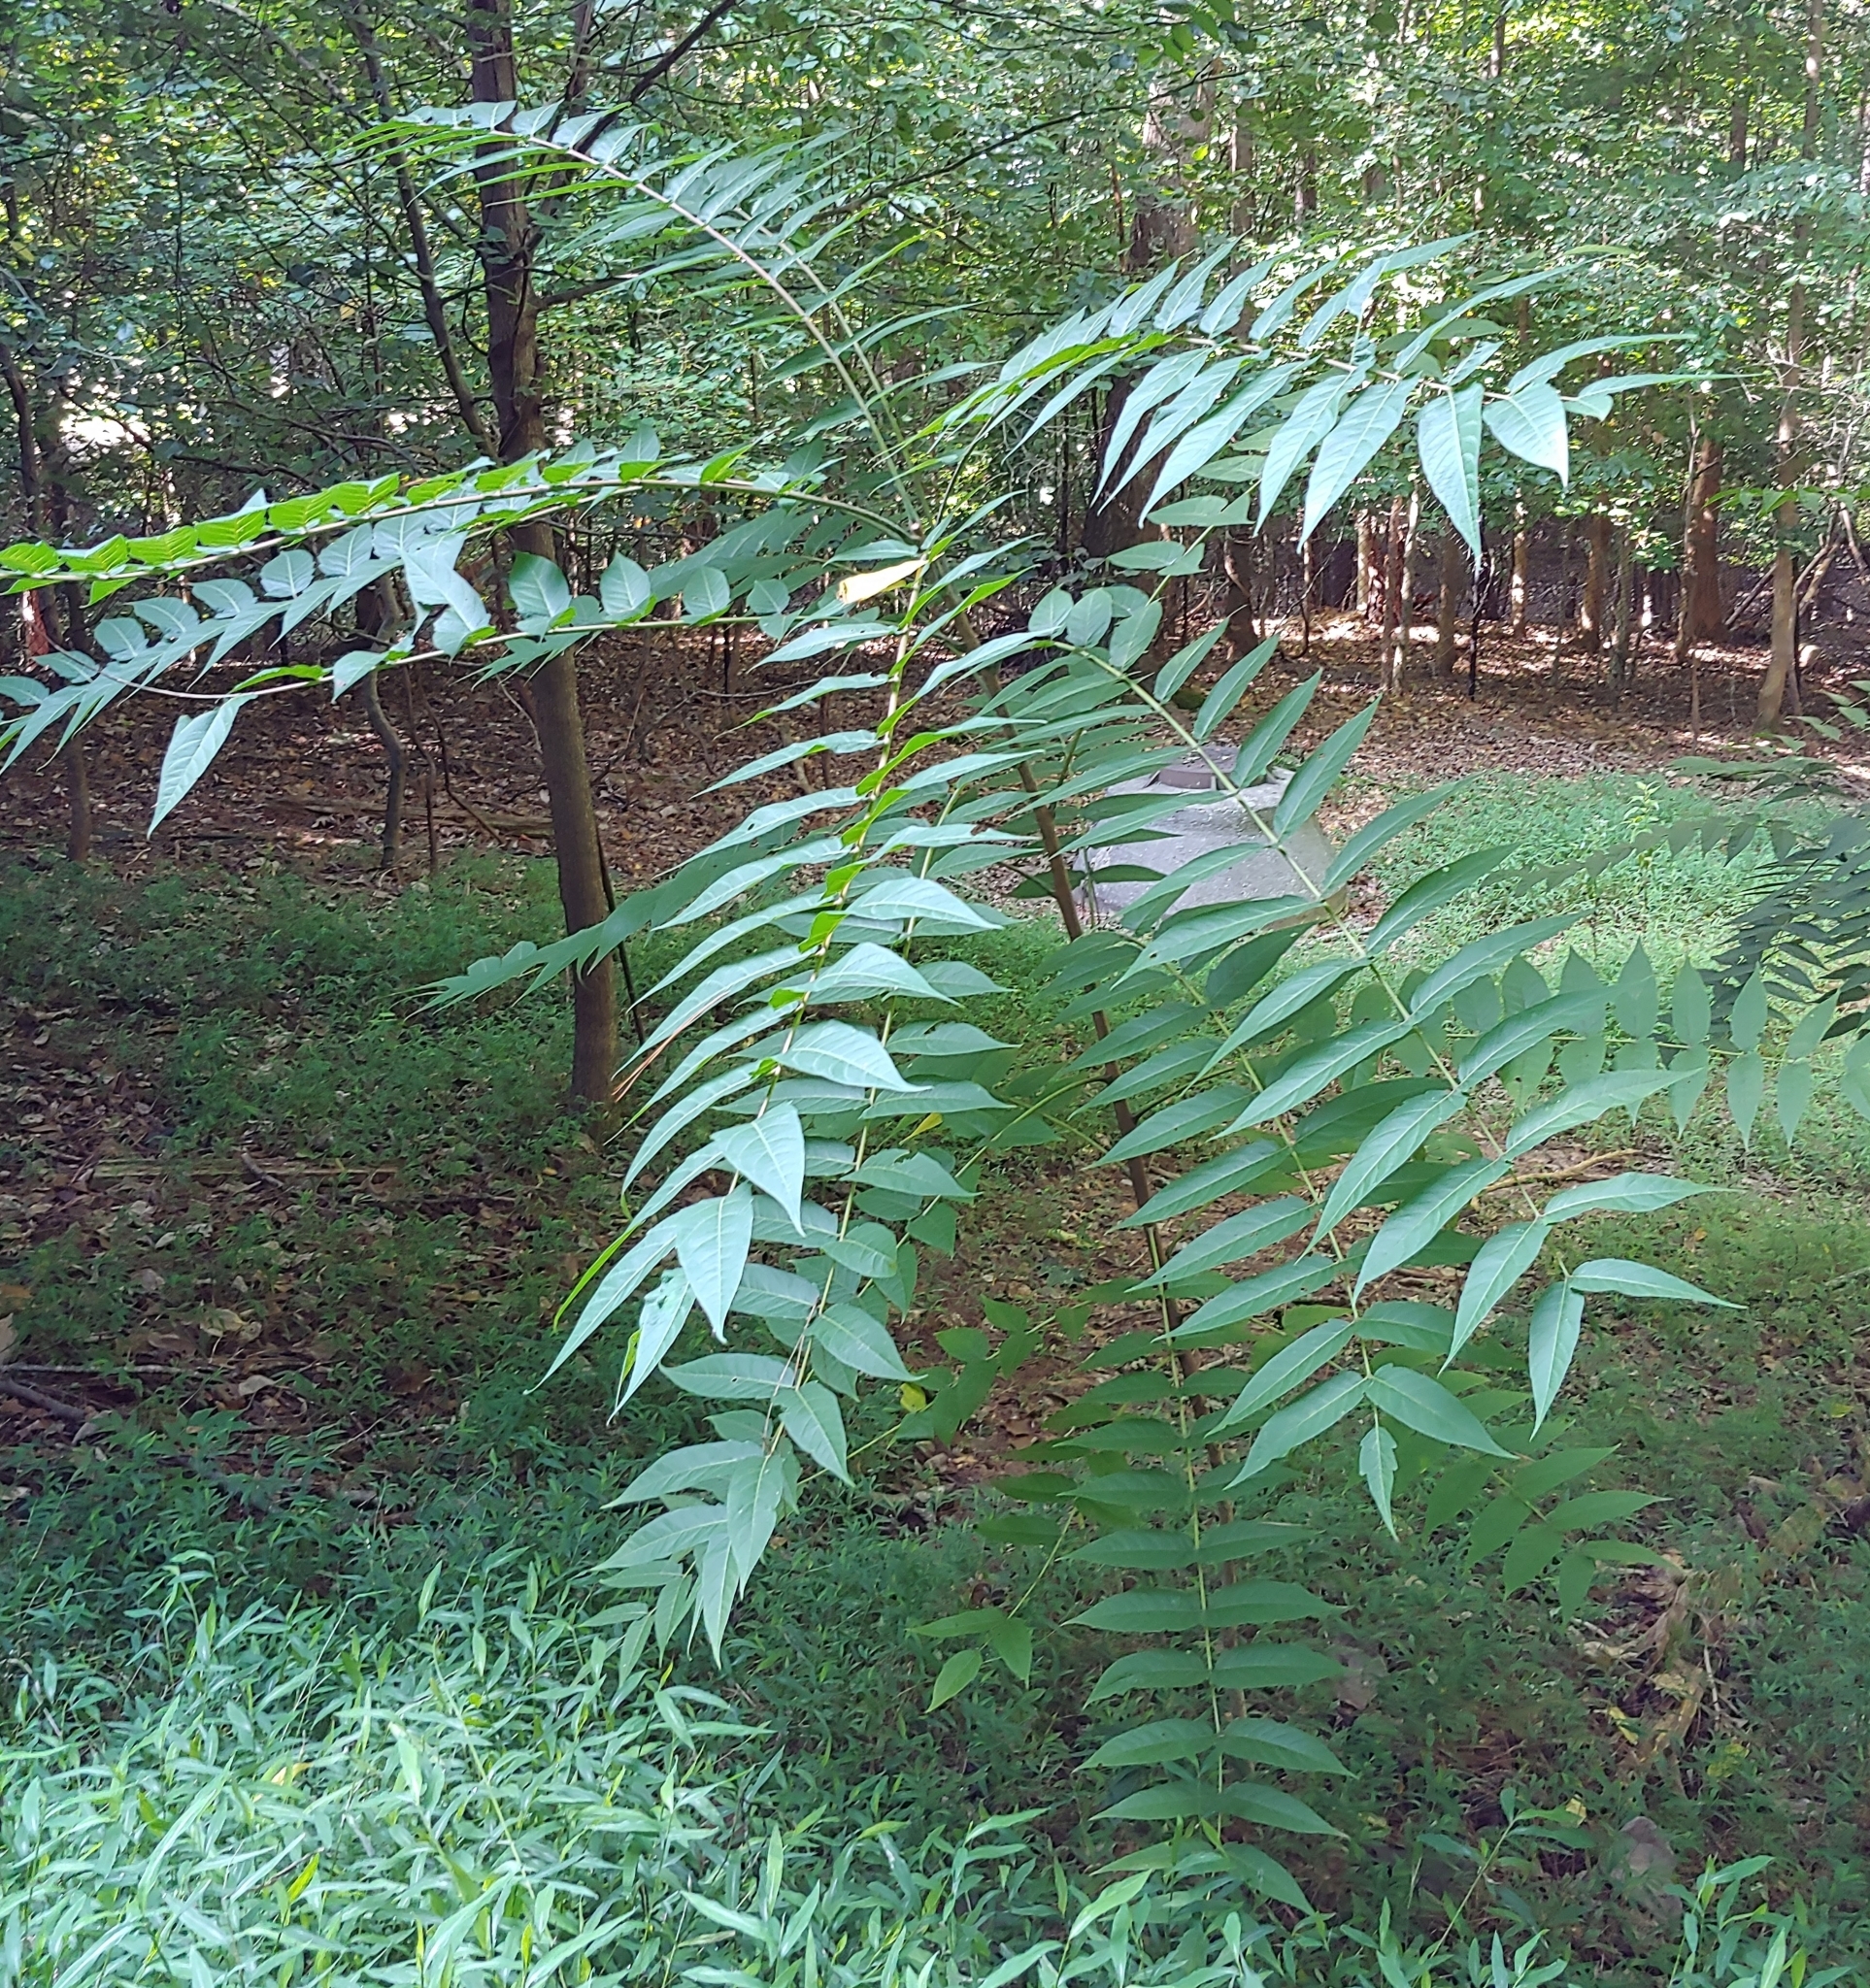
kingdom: Plantae
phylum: Tracheophyta
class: Magnoliopsida
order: Sapindales
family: Simaroubaceae
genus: Ailanthus
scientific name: Ailanthus altissima
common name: Tree-of-heaven
